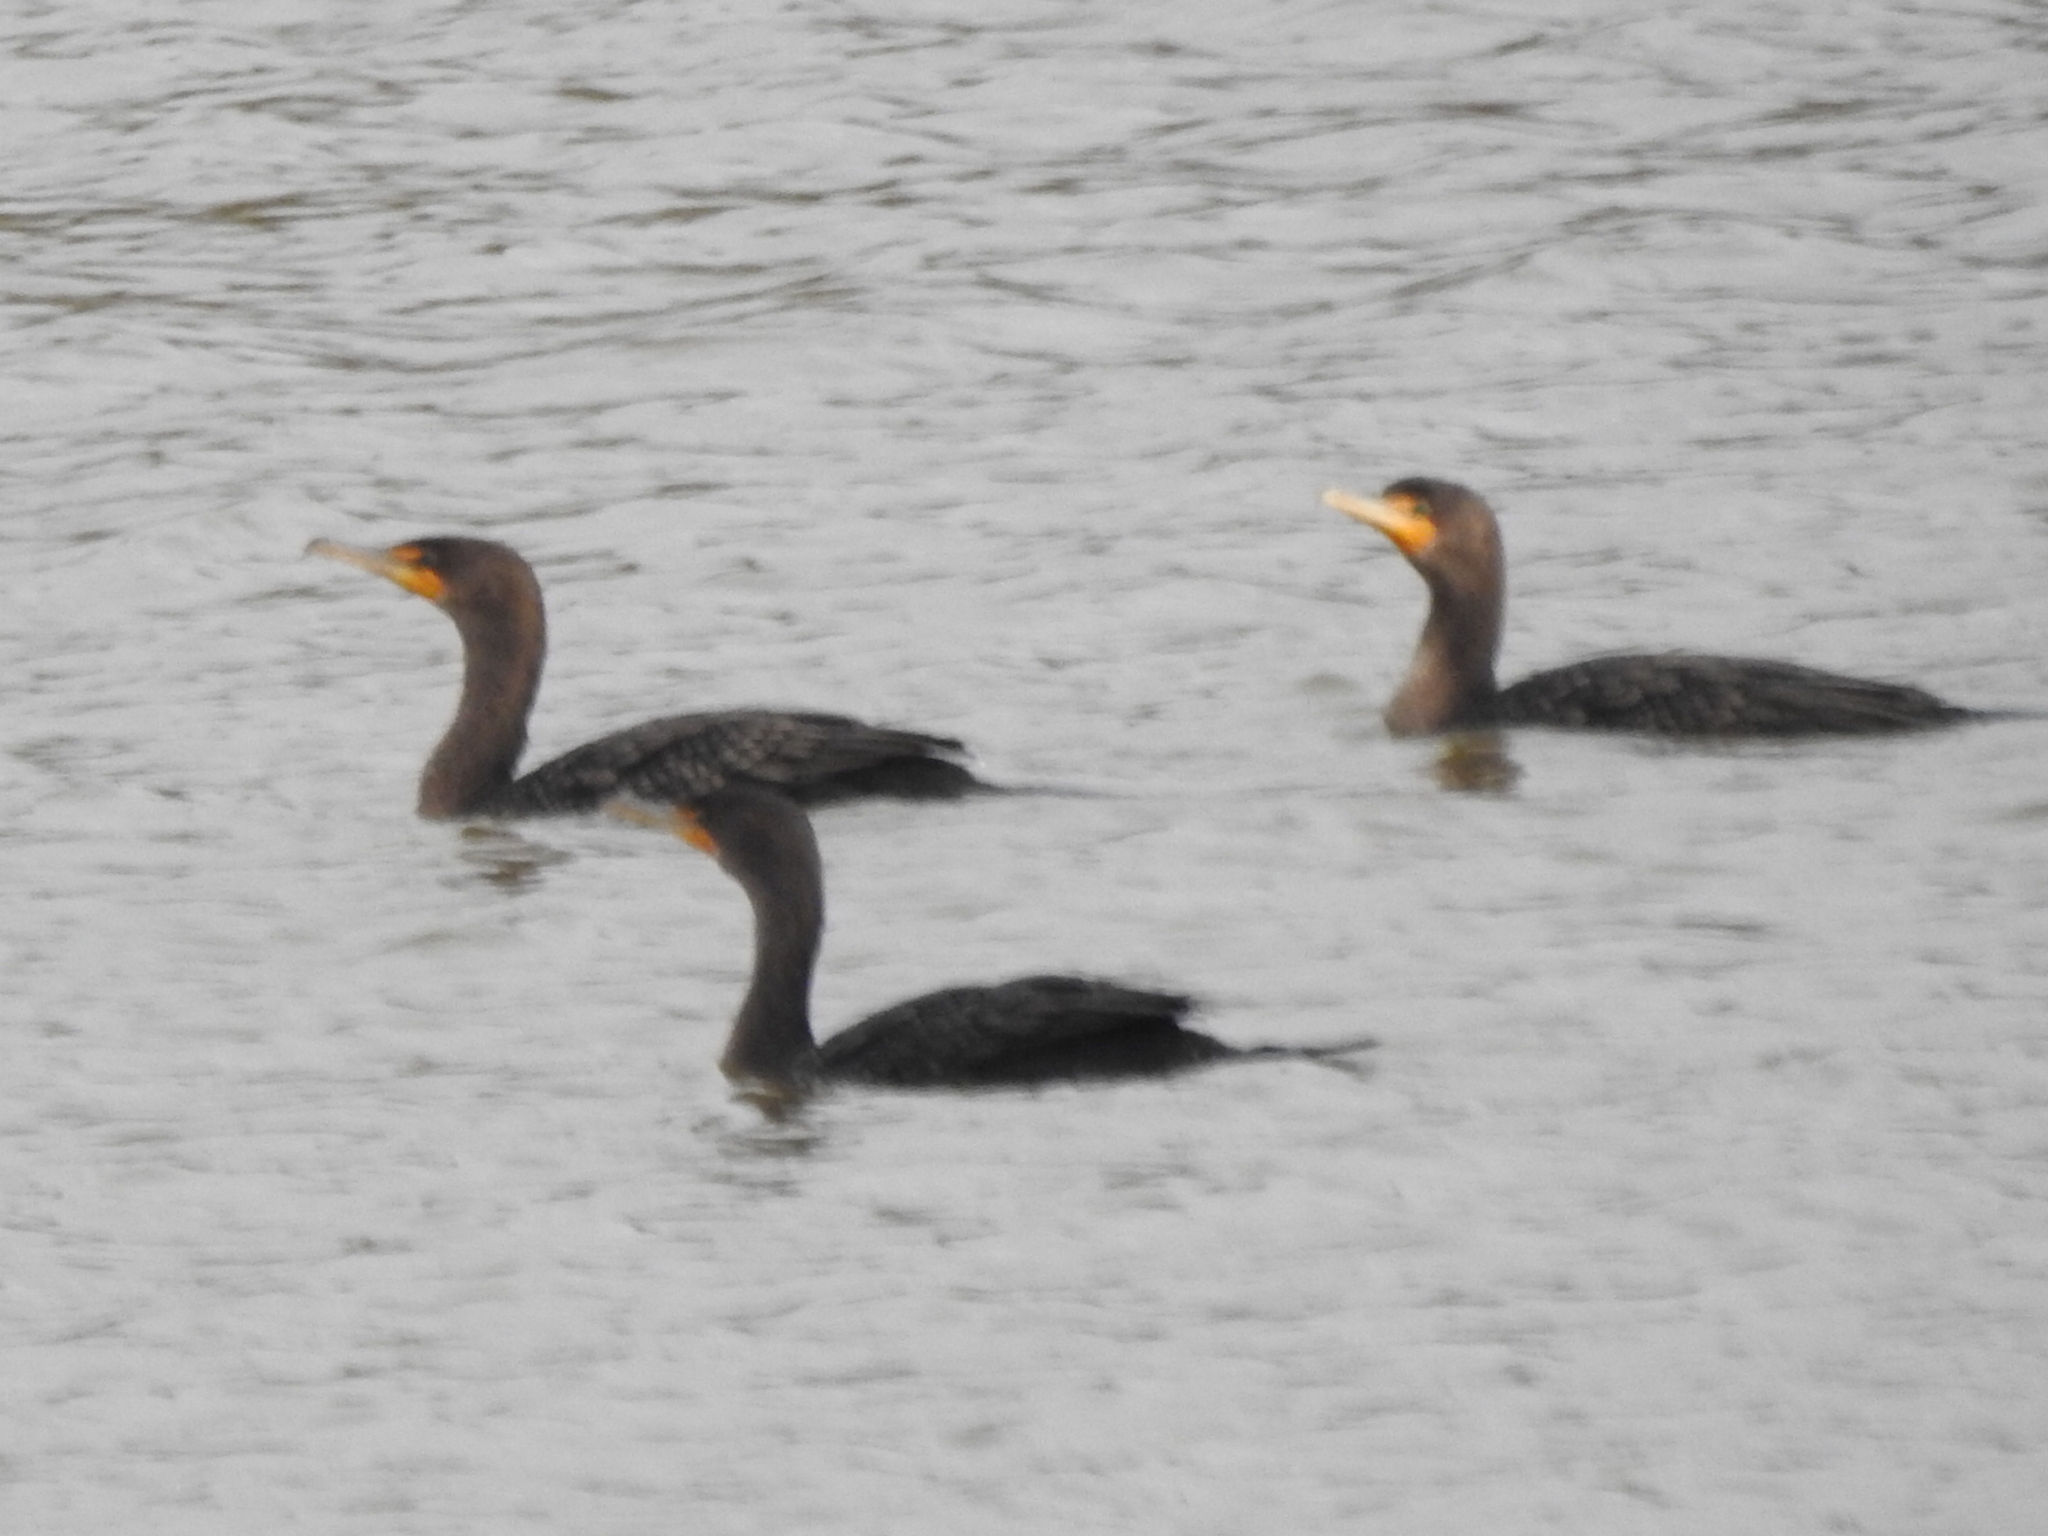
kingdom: Animalia
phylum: Chordata
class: Aves
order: Suliformes
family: Phalacrocoracidae
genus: Phalacrocorax
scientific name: Phalacrocorax auritus
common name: Double-crested cormorant
